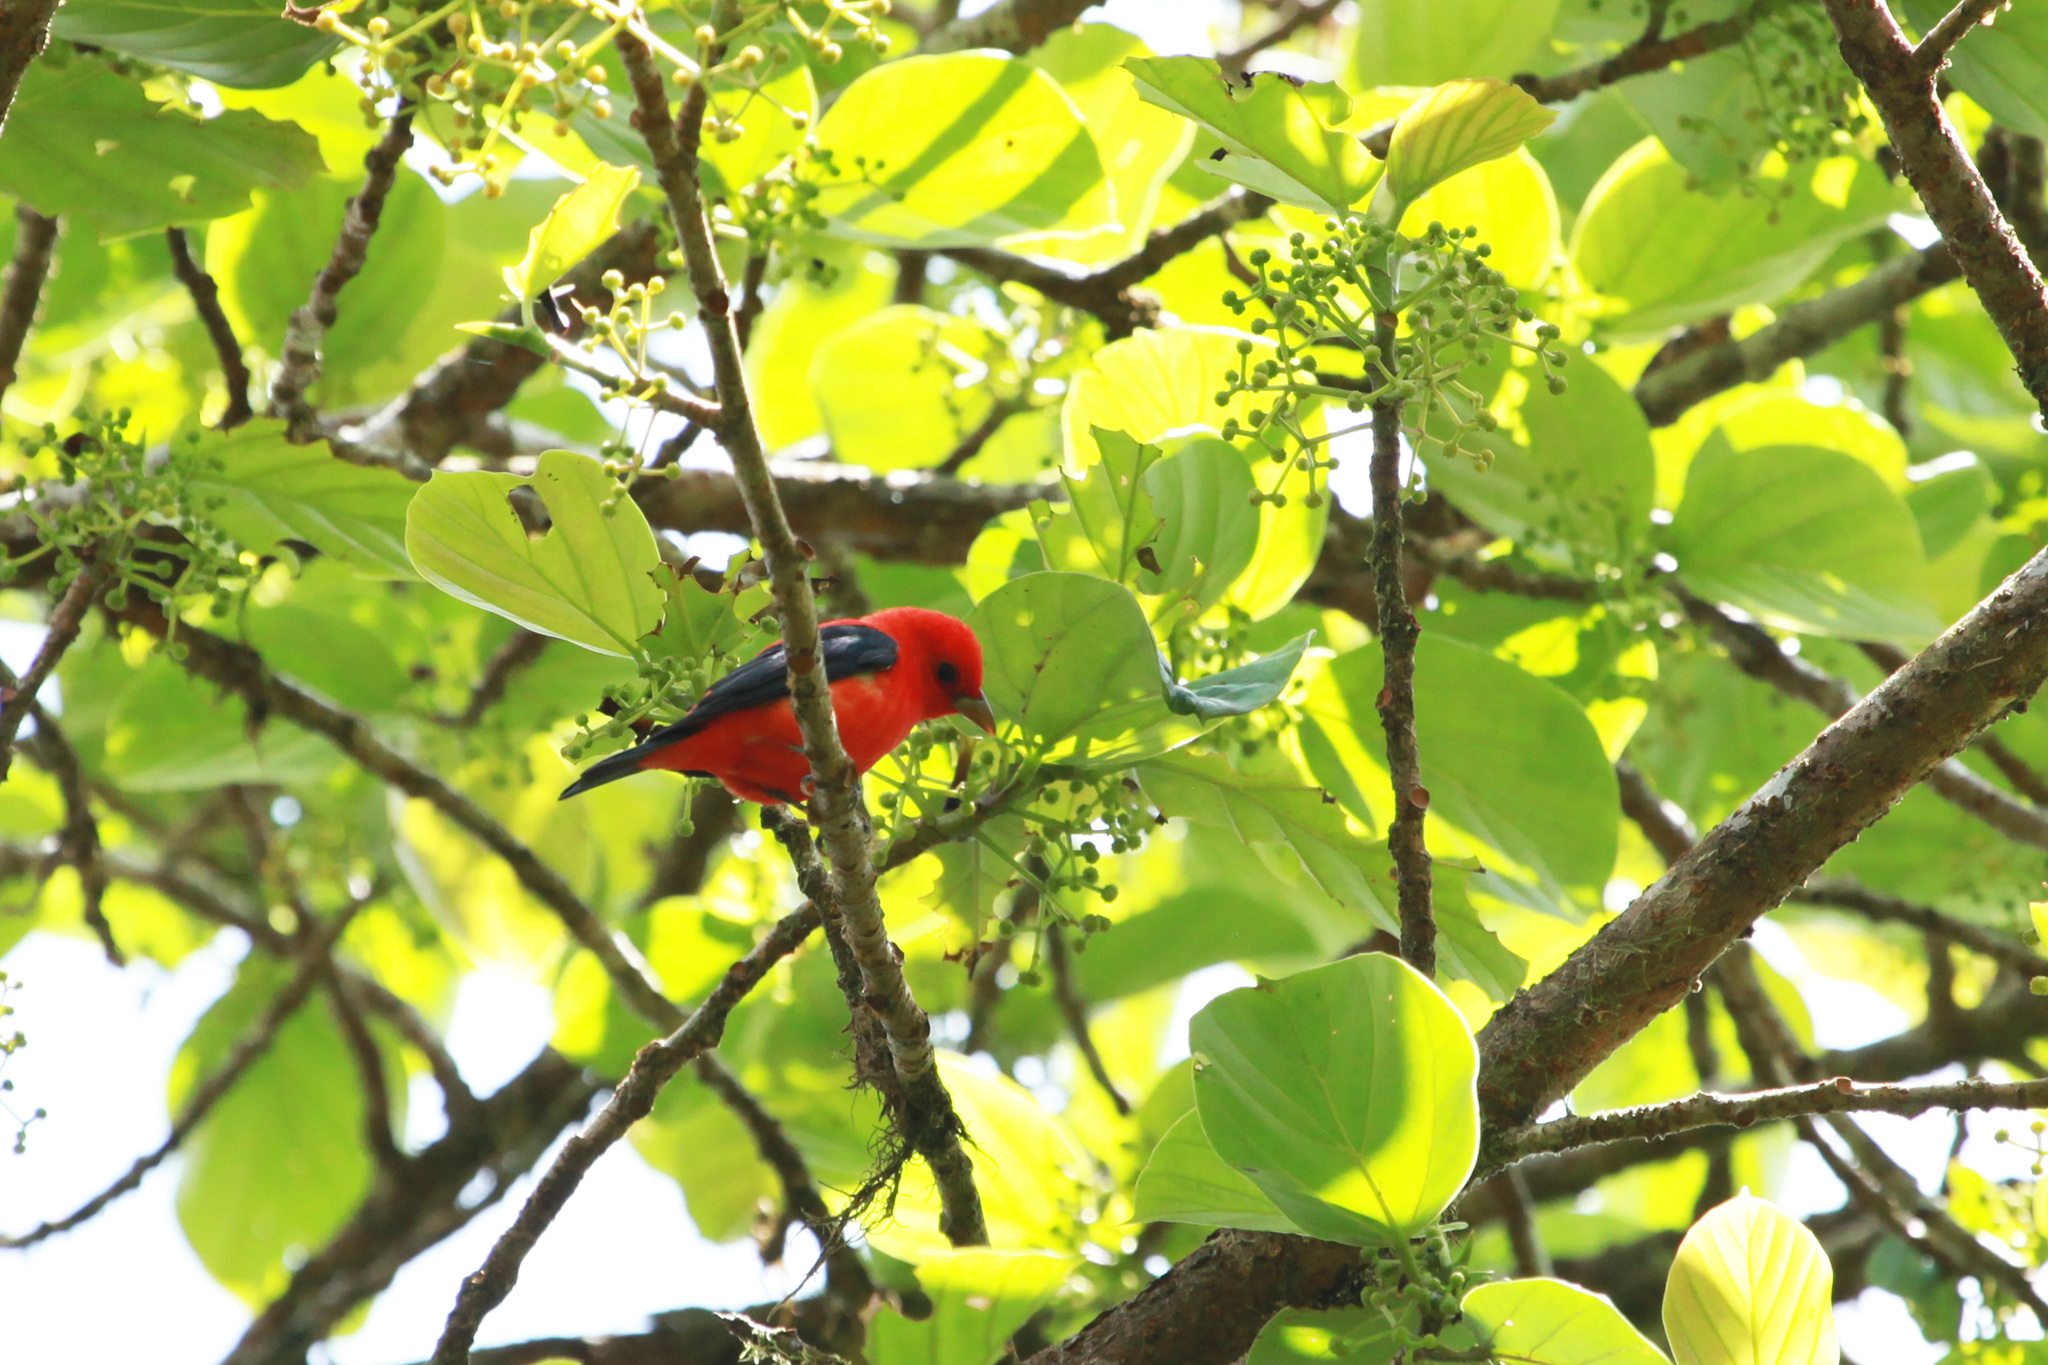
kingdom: Animalia
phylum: Chordata
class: Aves
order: Passeriformes
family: Cardinalidae
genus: Piranga
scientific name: Piranga olivacea
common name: Scarlet tanager
